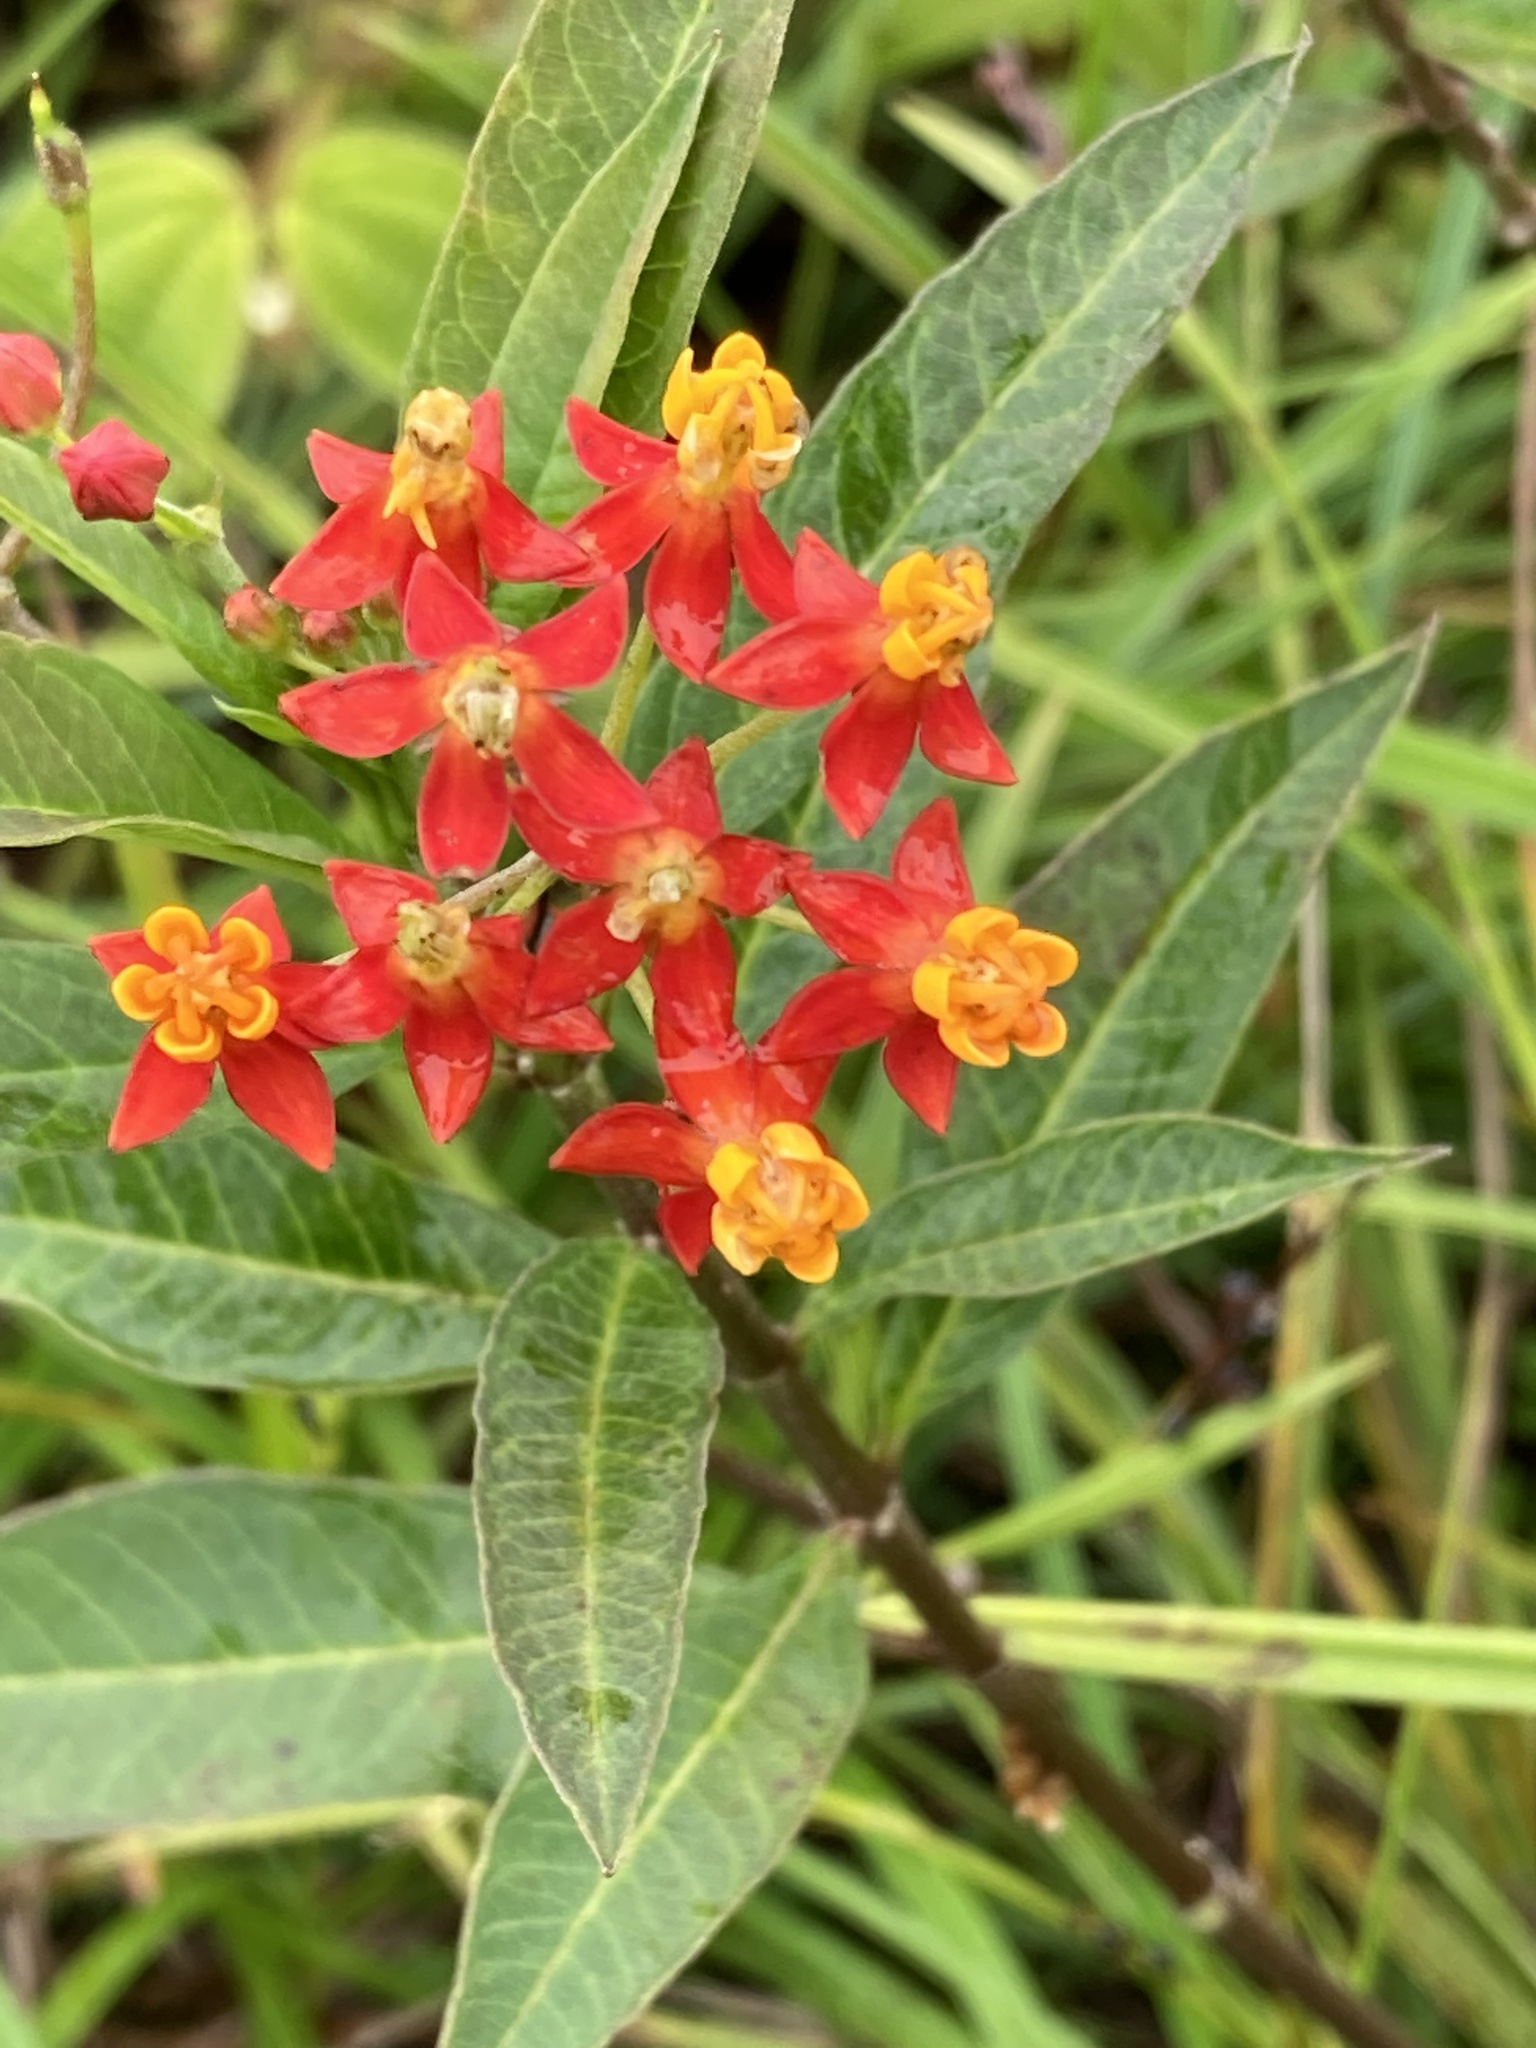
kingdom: Plantae
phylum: Tracheophyta
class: Magnoliopsida
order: Gentianales
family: Apocynaceae
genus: Asclepias
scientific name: Asclepias curassavica
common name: Bloodflower
